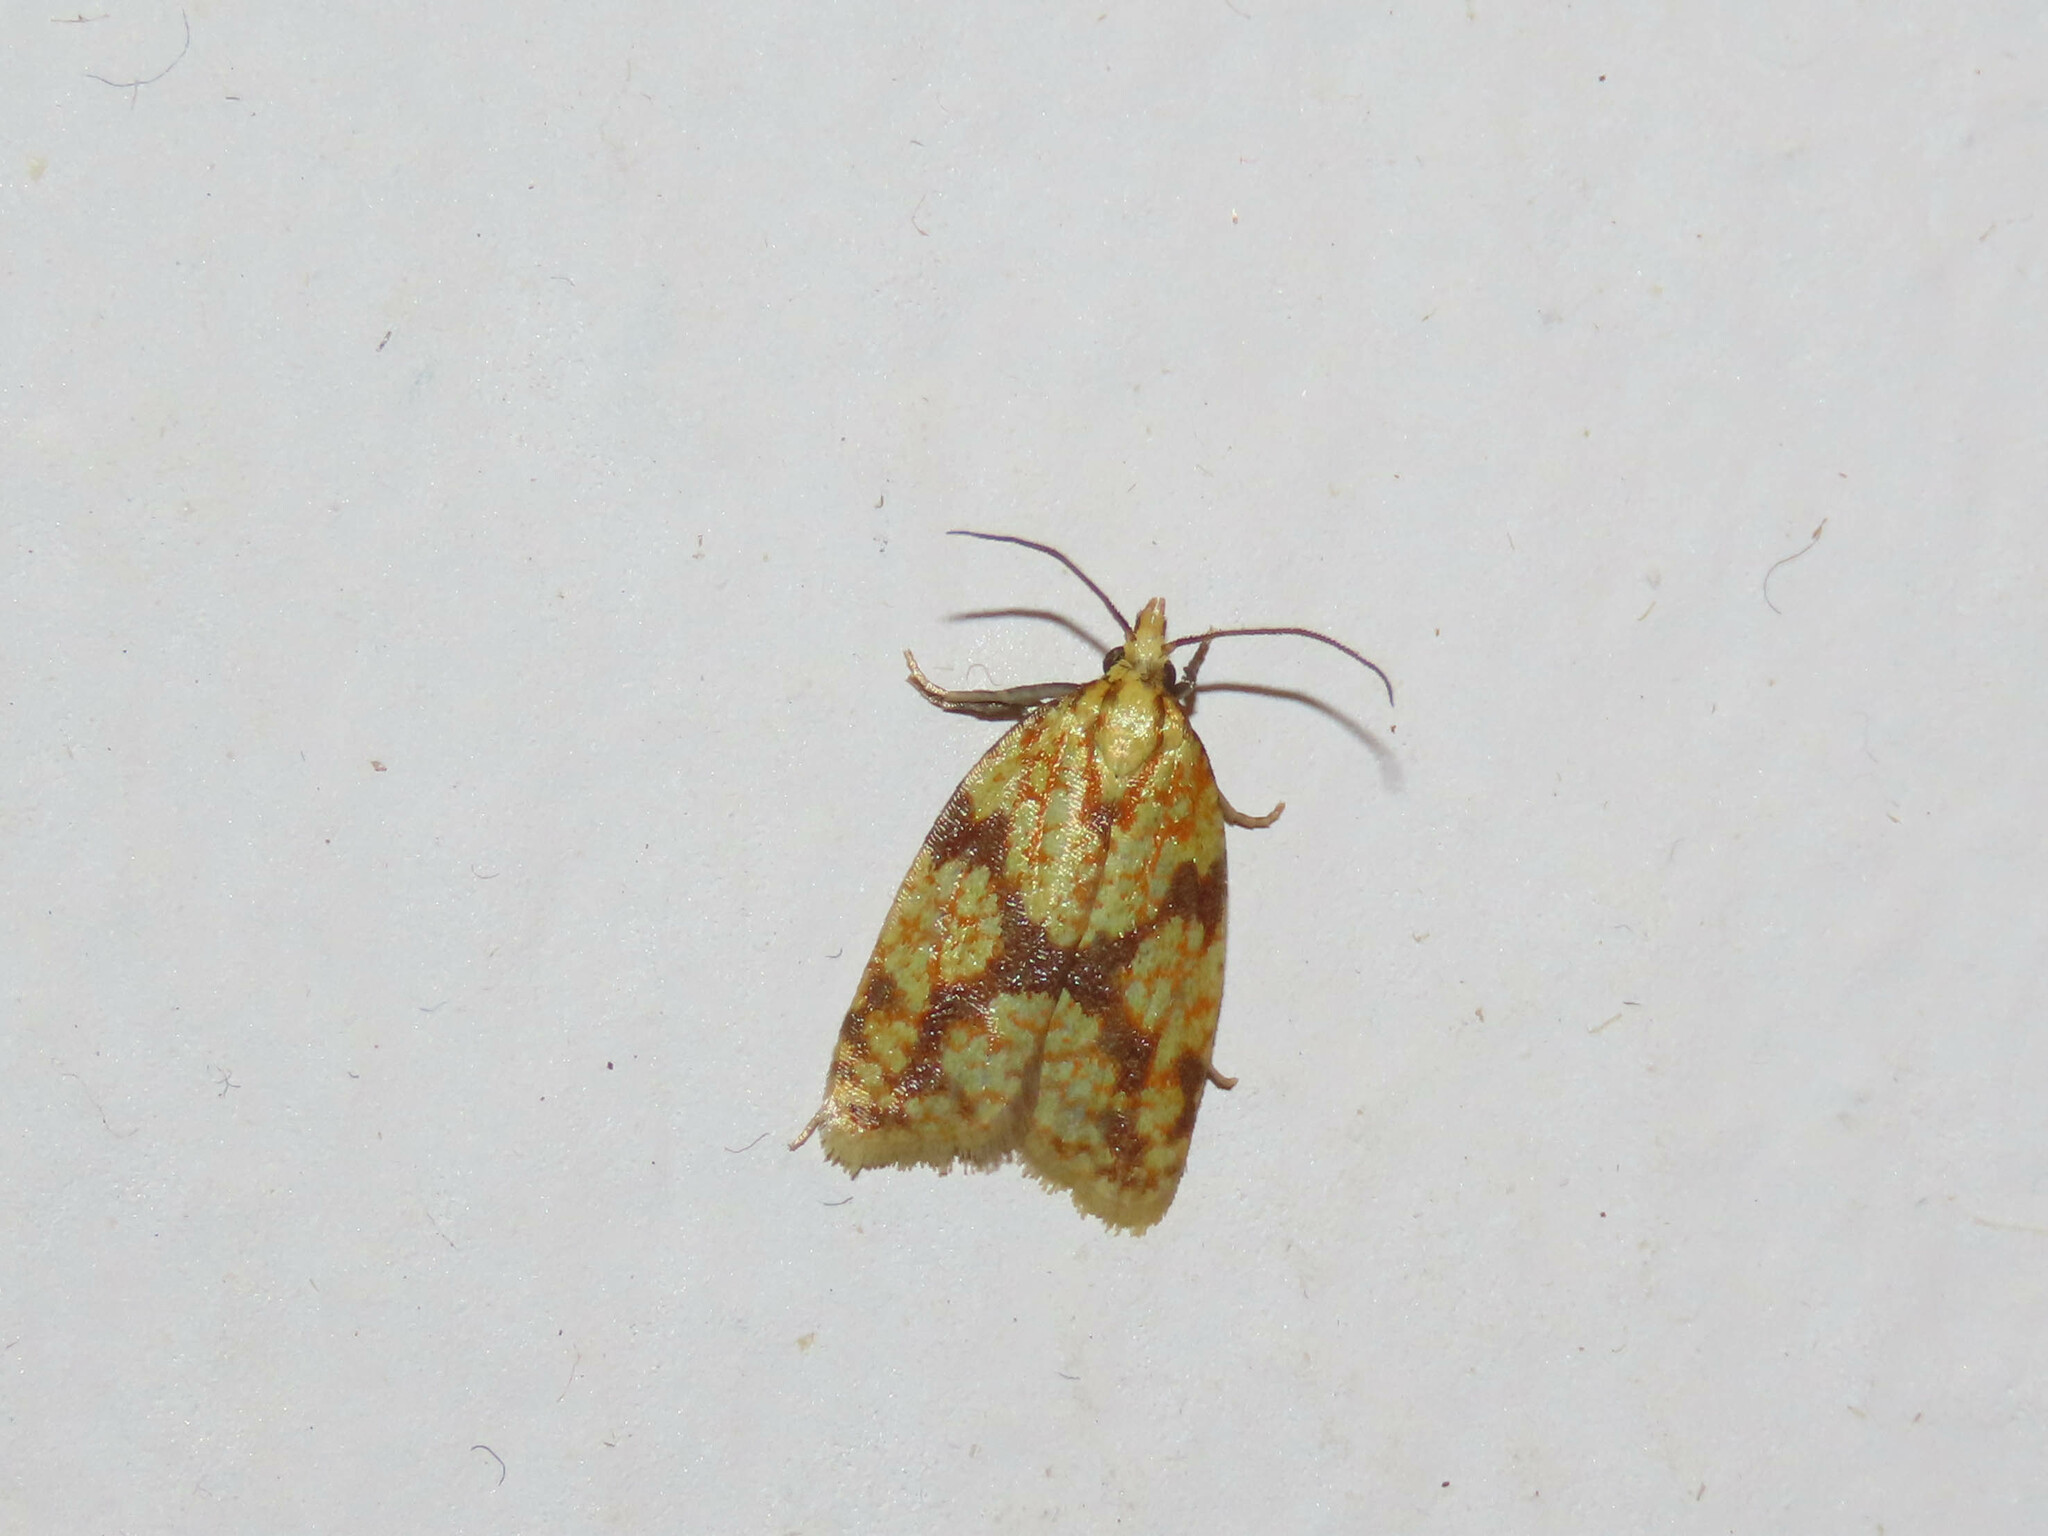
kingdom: Animalia
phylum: Arthropoda
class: Insecta
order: Lepidoptera
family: Tortricidae
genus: Sparganothis
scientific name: Sparganothis sulfureana
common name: Sparganothis fruitworm moth
